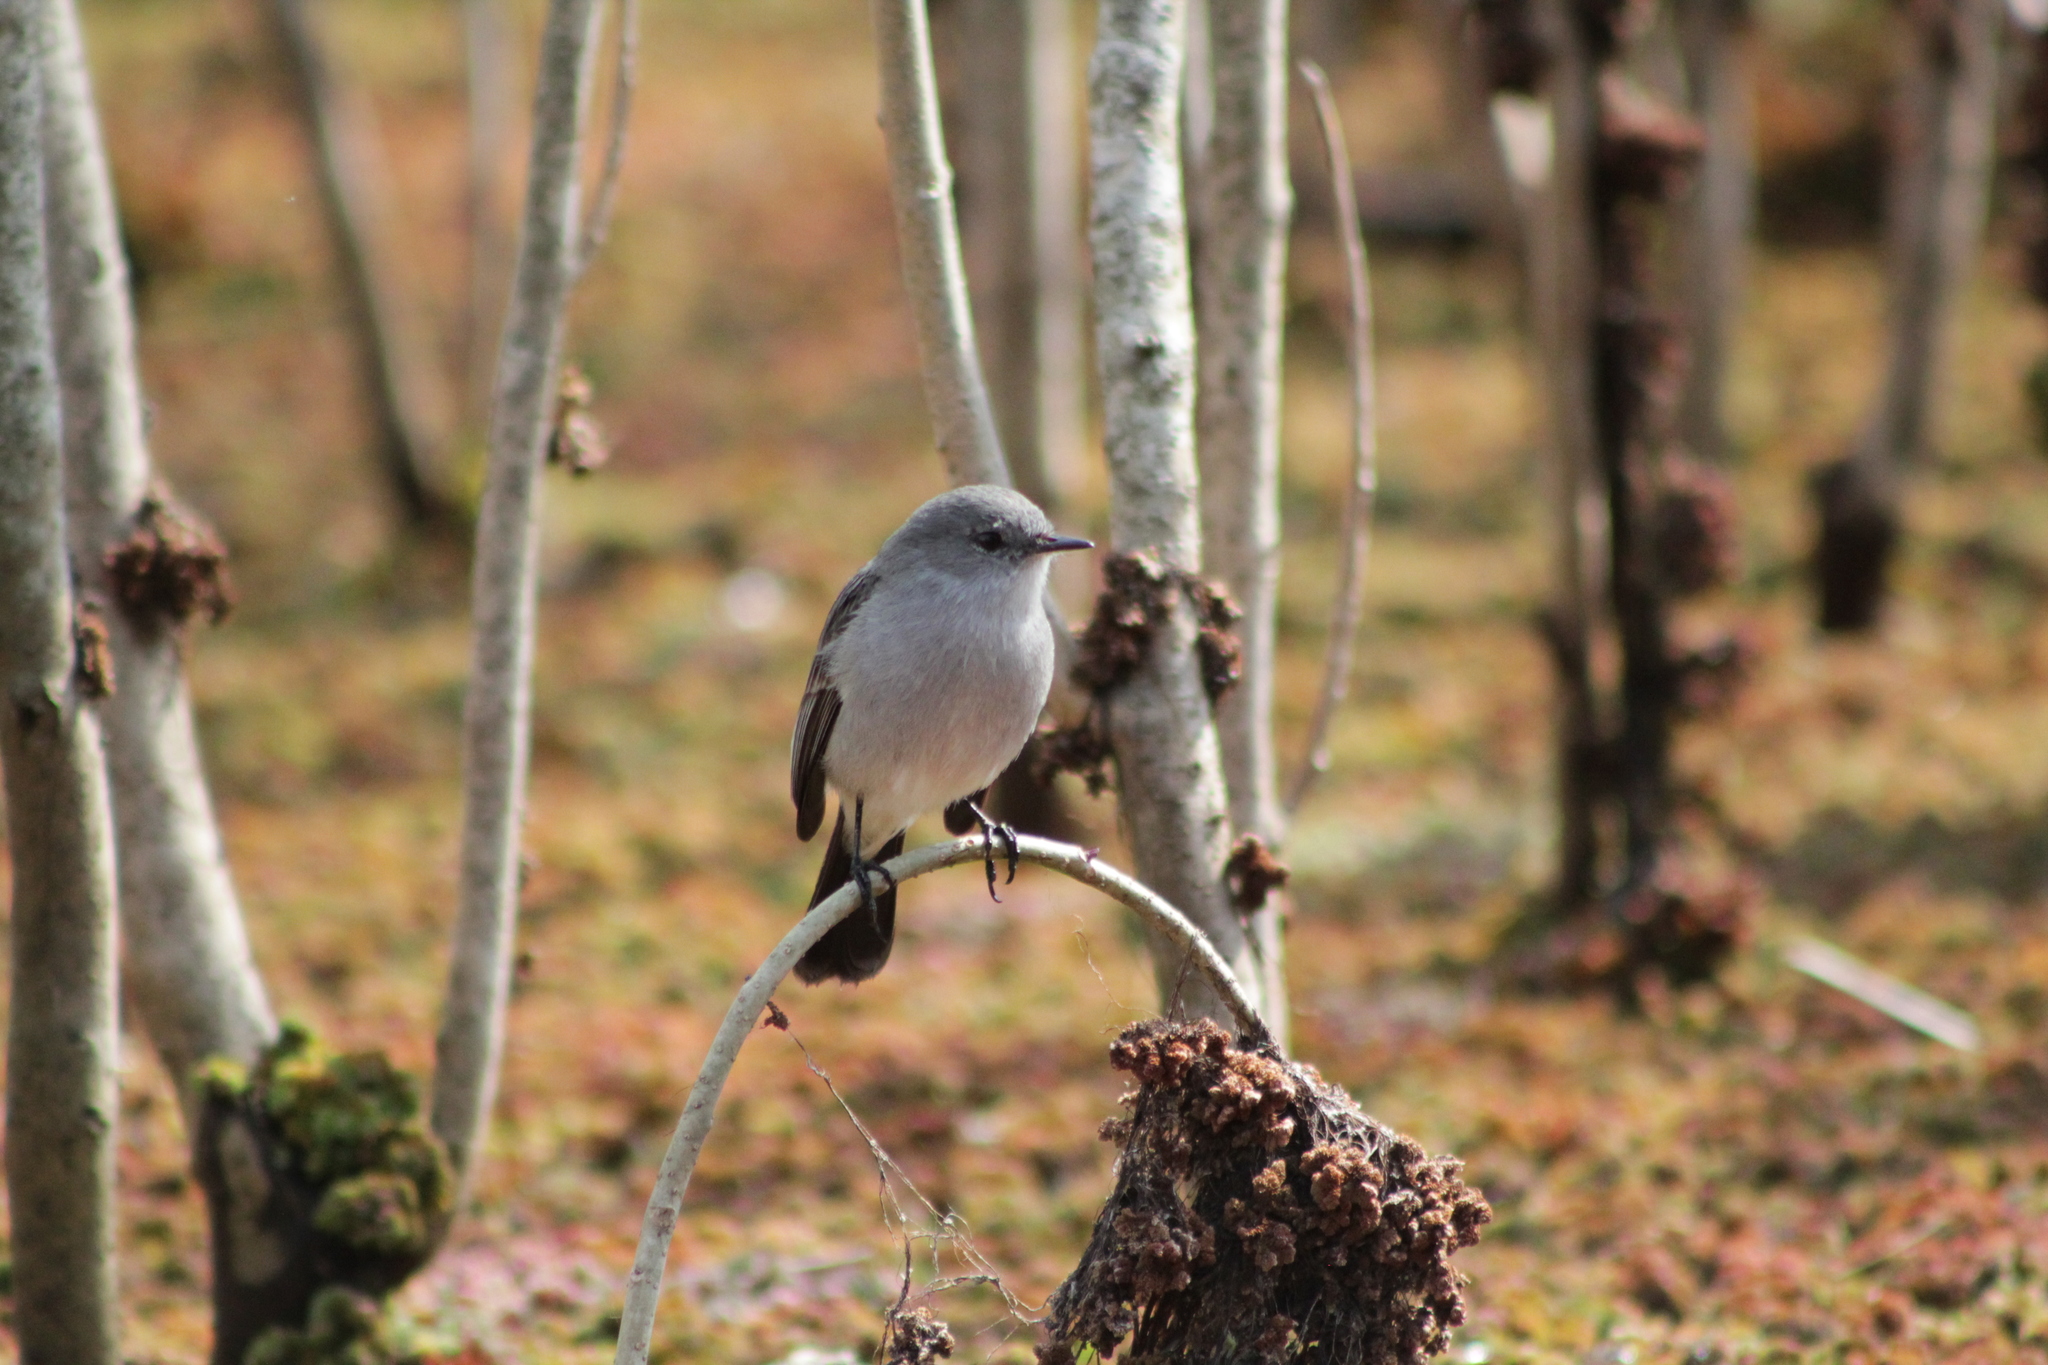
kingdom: Animalia
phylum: Chordata
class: Aves
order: Passeriformes
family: Tyrannidae
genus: Serpophaga
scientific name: Serpophaga nigricans
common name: Sooty tyrannulet
